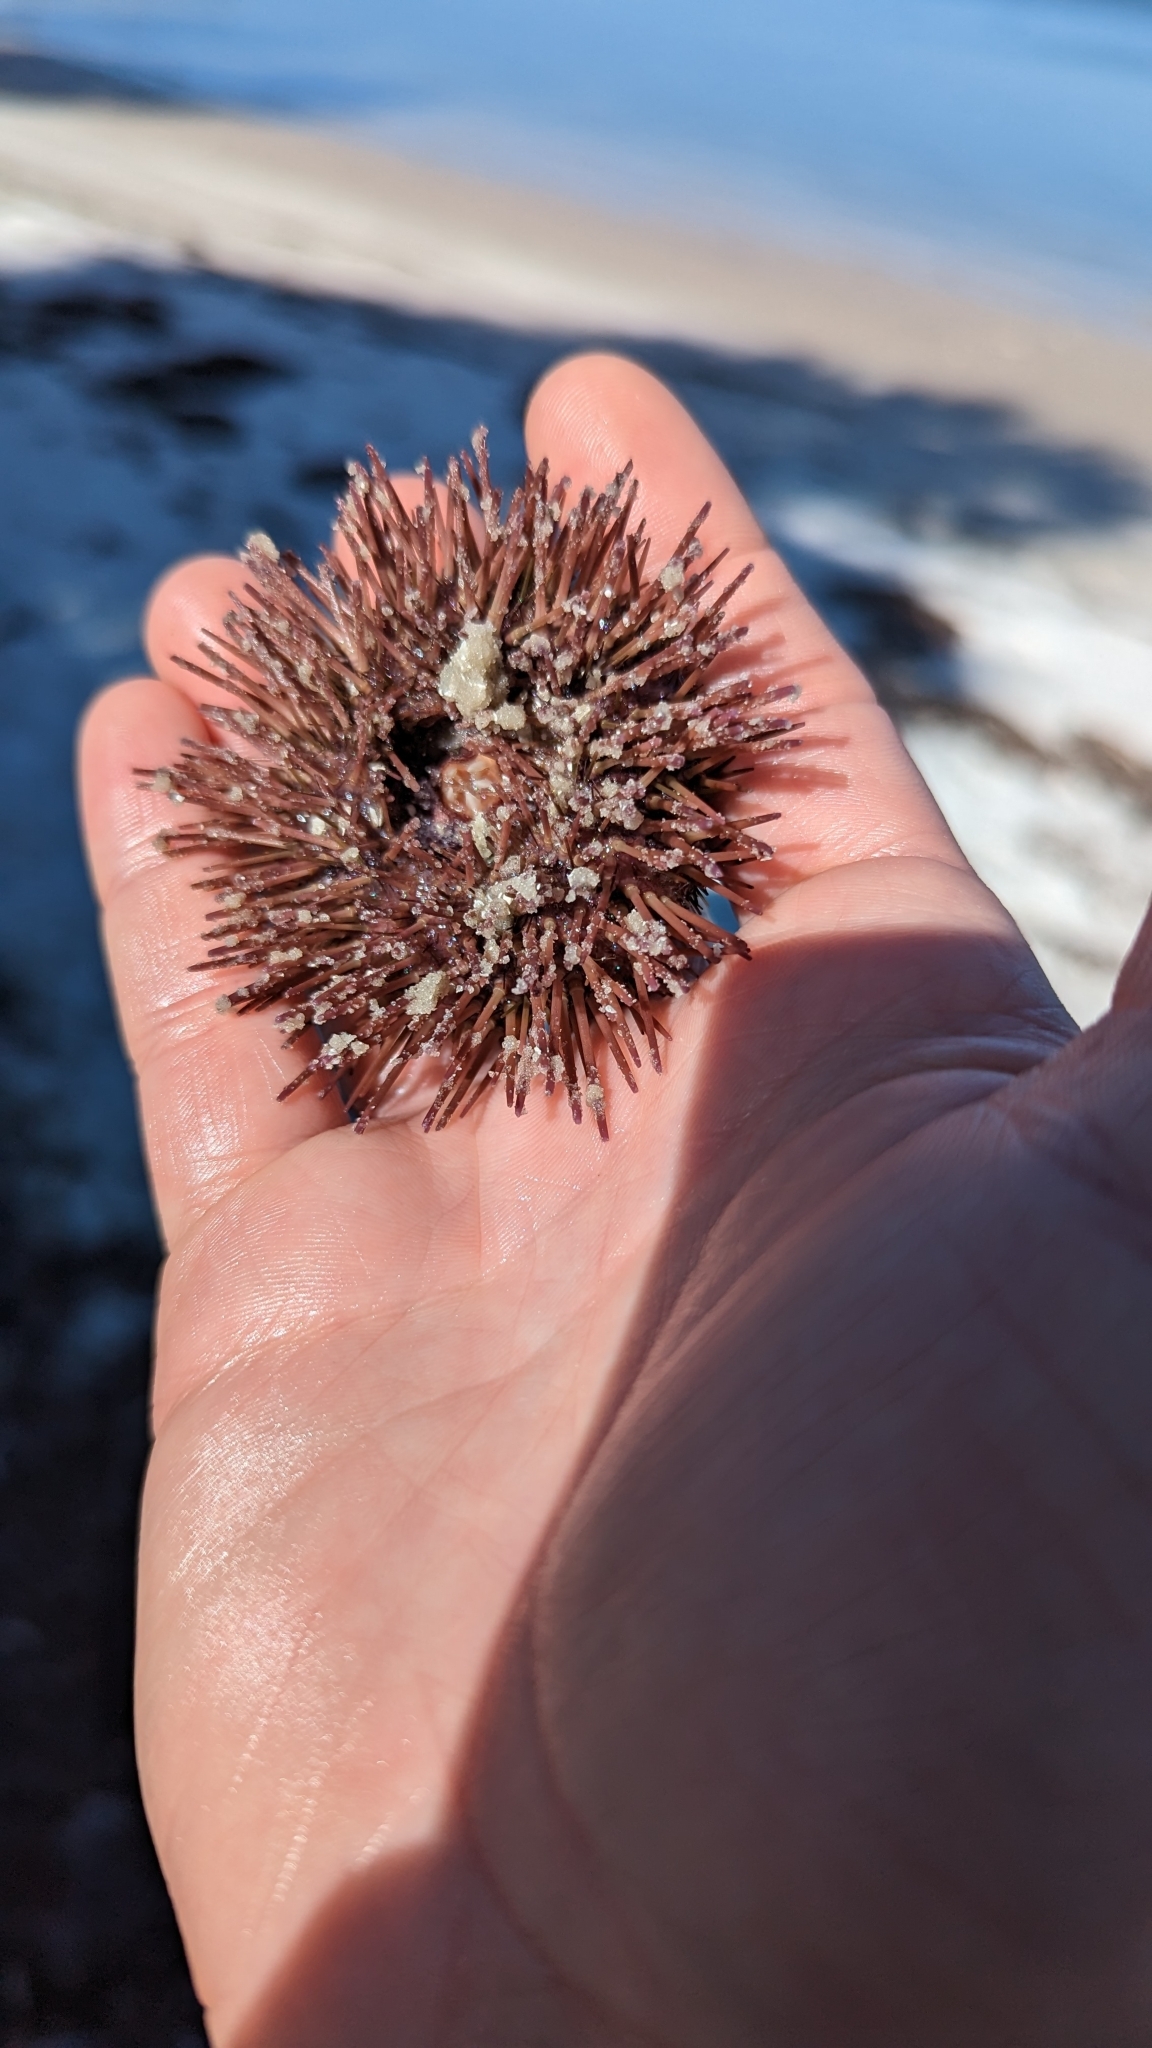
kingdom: Animalia
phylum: Echinodermata
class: Echinoidea
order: Camarodonta
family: Toxopneustidae
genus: Lytechinus
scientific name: Lytechinus variegatus
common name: Variegated urchin
